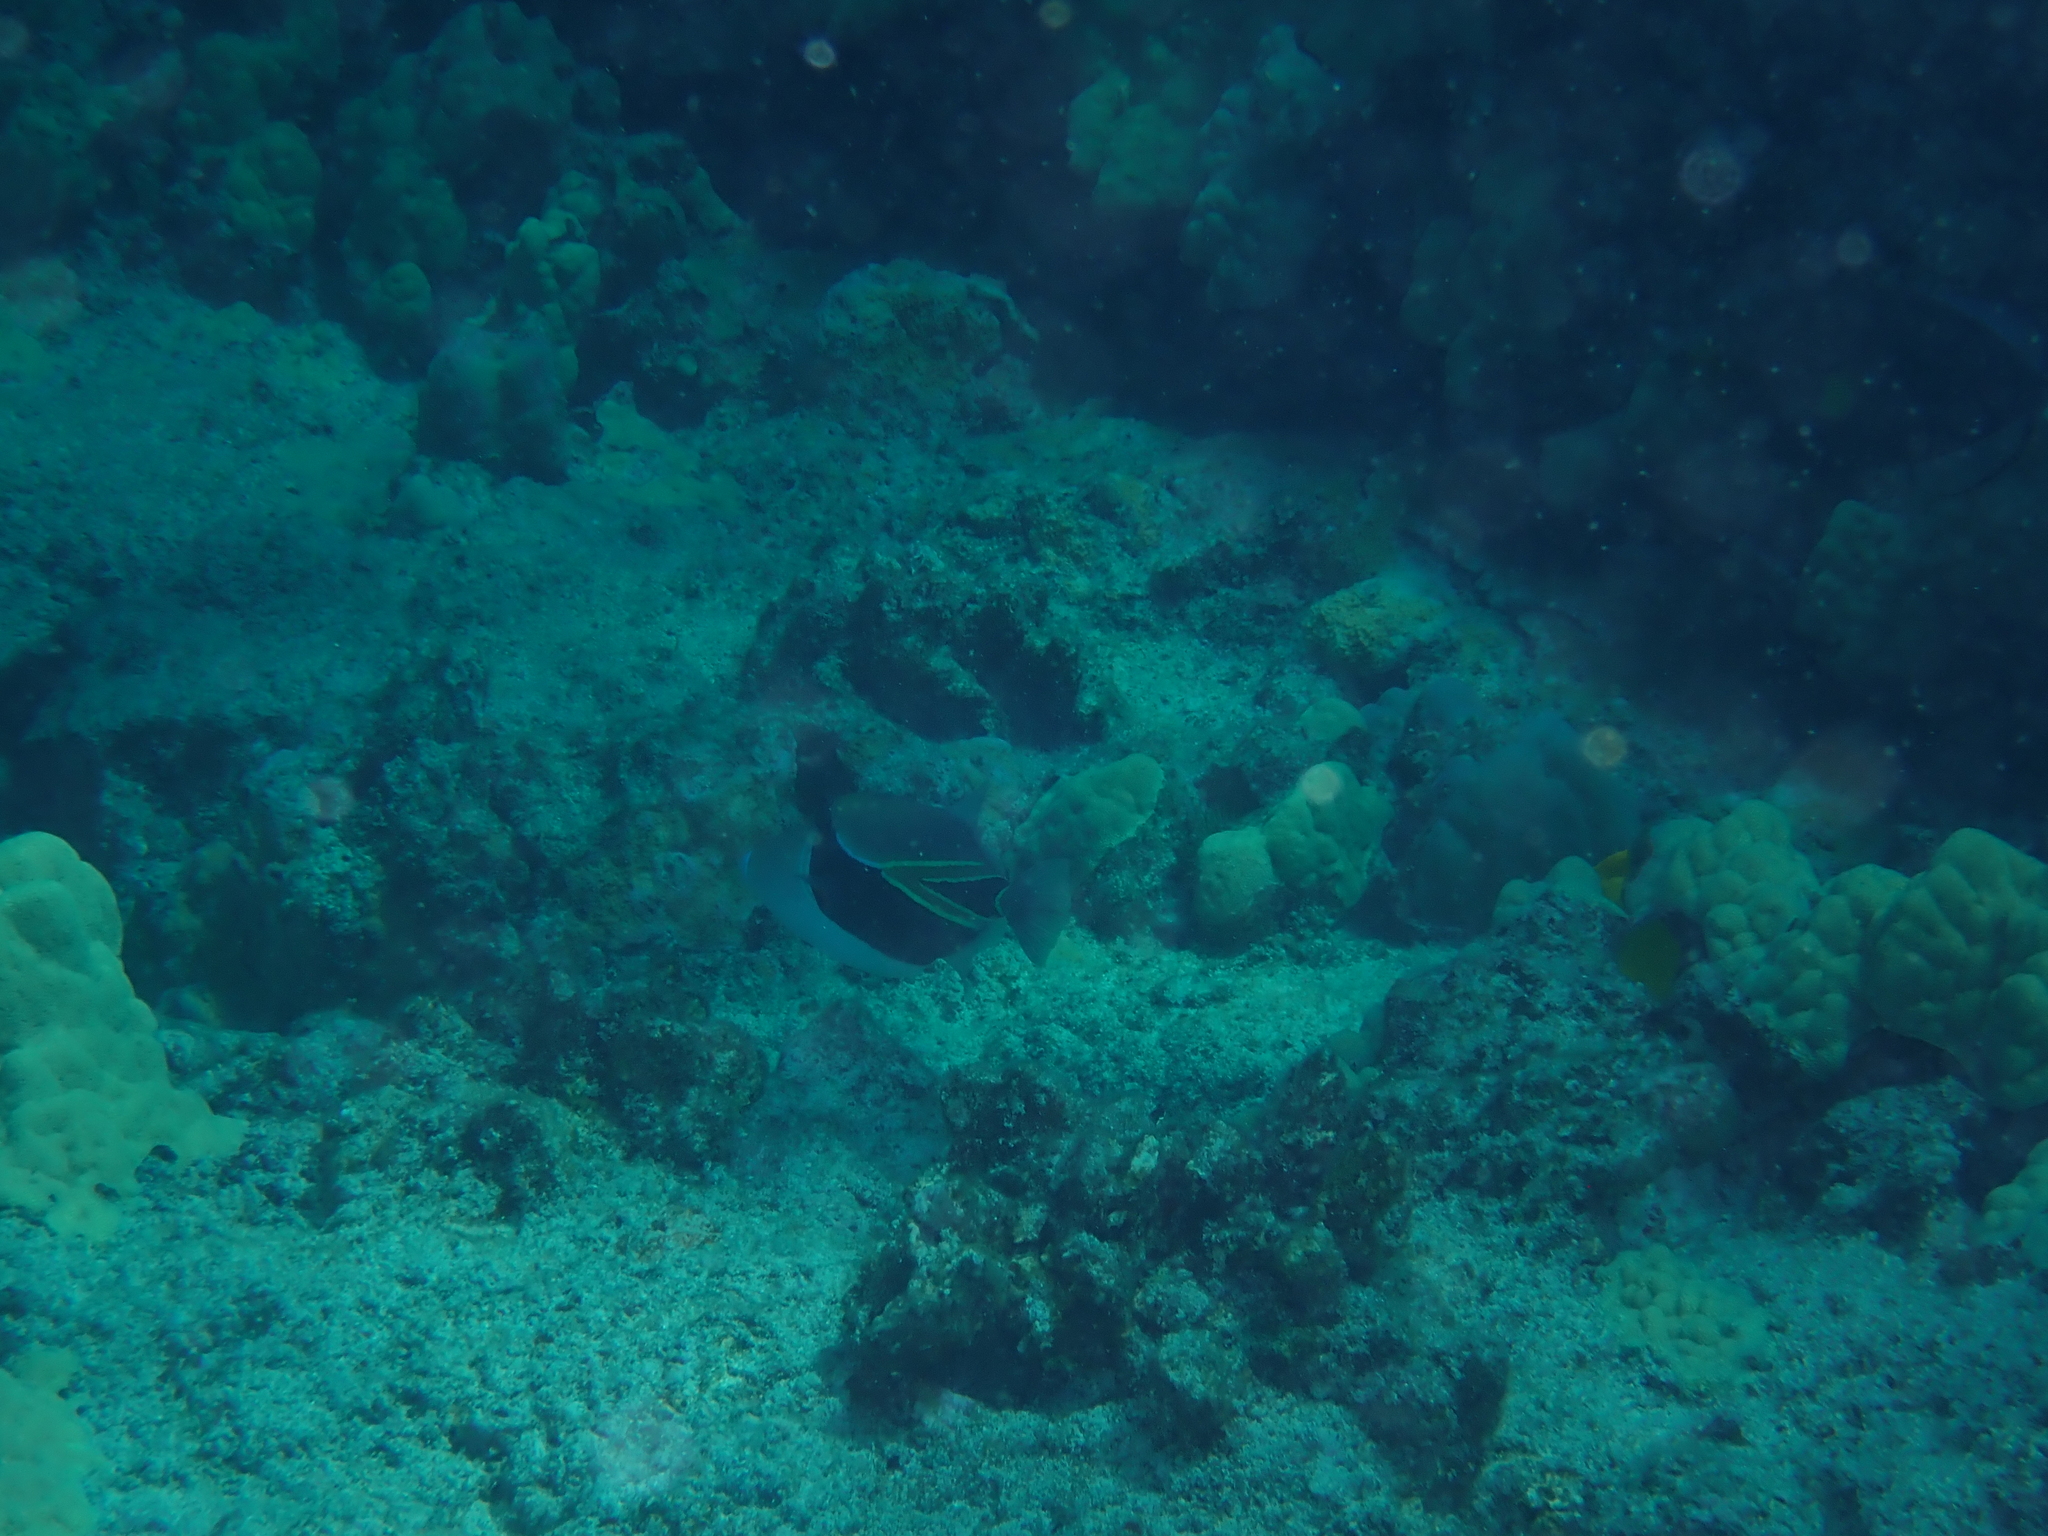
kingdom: Animalia
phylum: Chordata
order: Tetraodontiformes
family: Balistidae
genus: Rhinecanthus
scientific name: Rhinecanthus rectangulus
